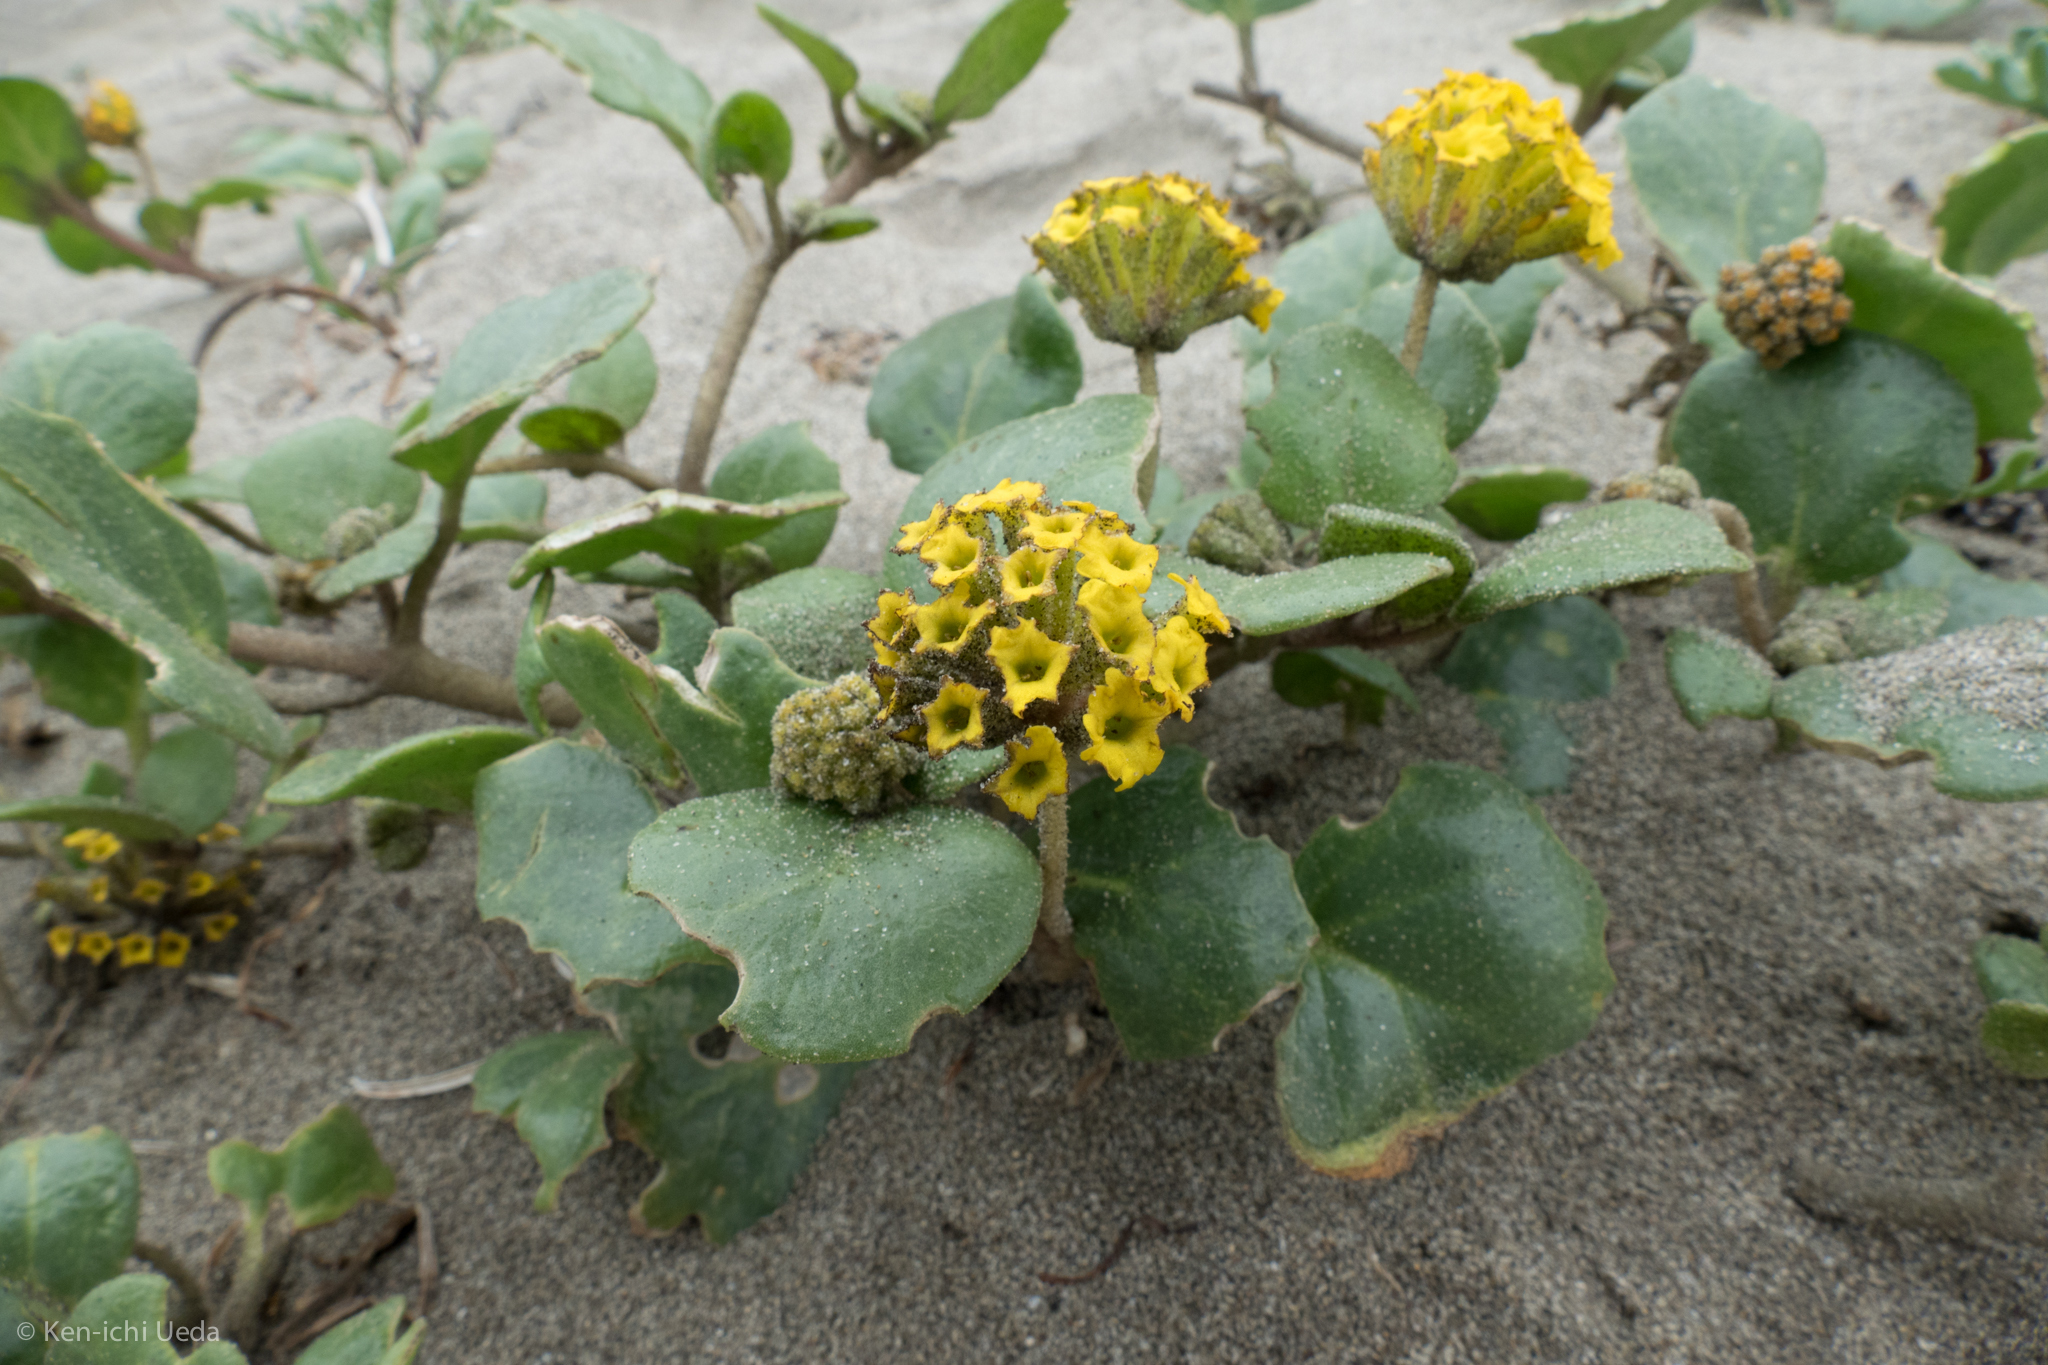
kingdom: Plantae
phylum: Tracheophyta
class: Magnoliopsida
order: Caryophyllales
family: Nyctaginaceae
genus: Abronia
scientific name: Abronia latifolia
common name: Yellow sand-verbena
